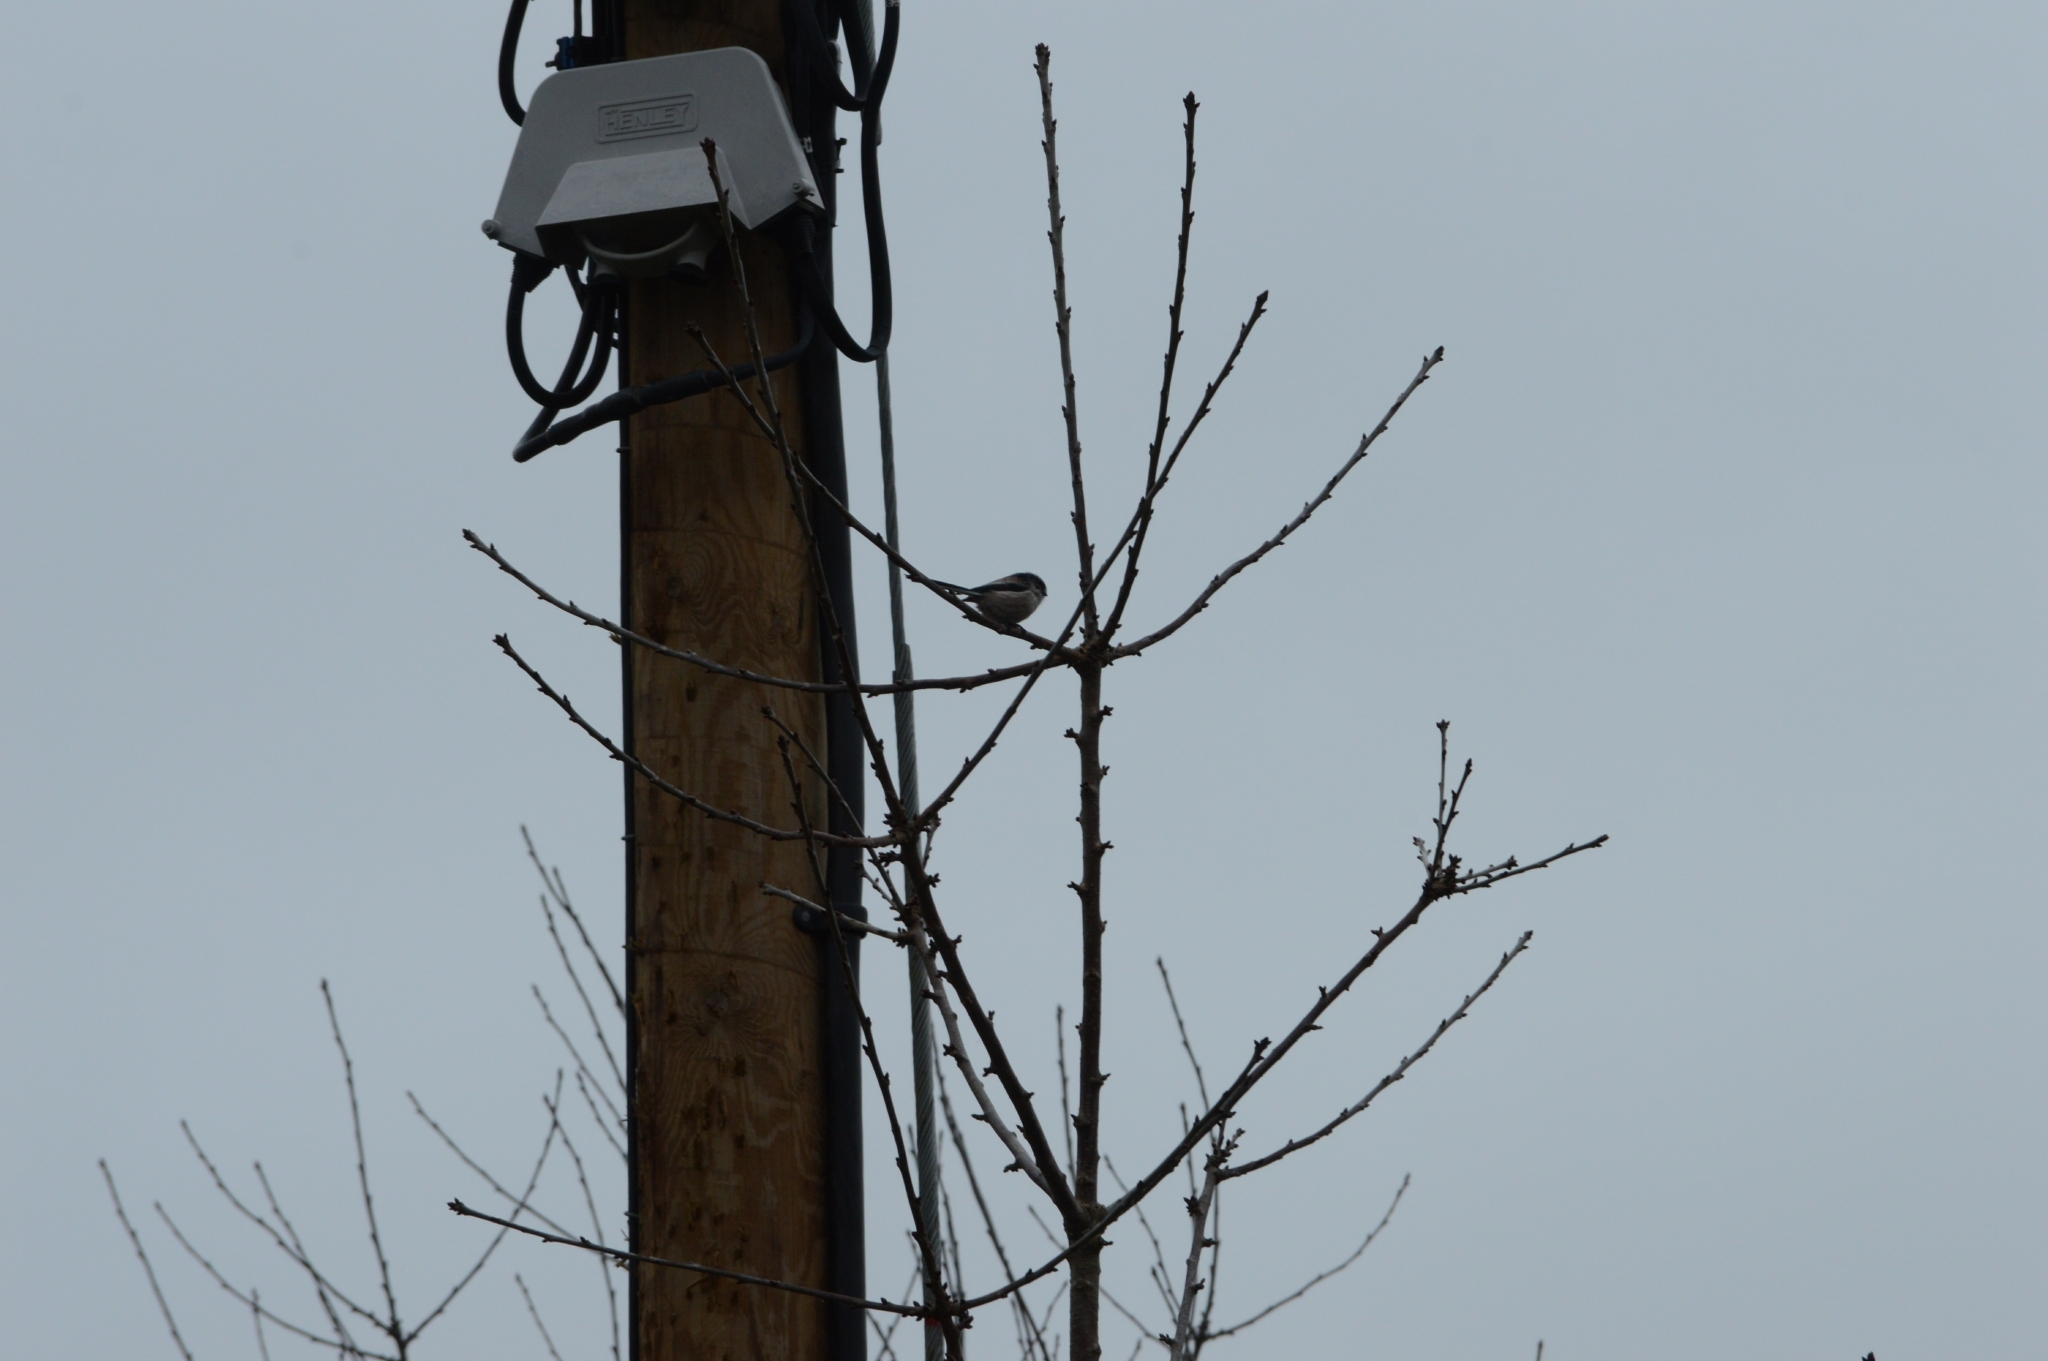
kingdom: Animalia
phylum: Chordata
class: Aves
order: Passeriformes
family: Aegithalidae
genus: Aegithalos
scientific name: Aegithalos caudatus
